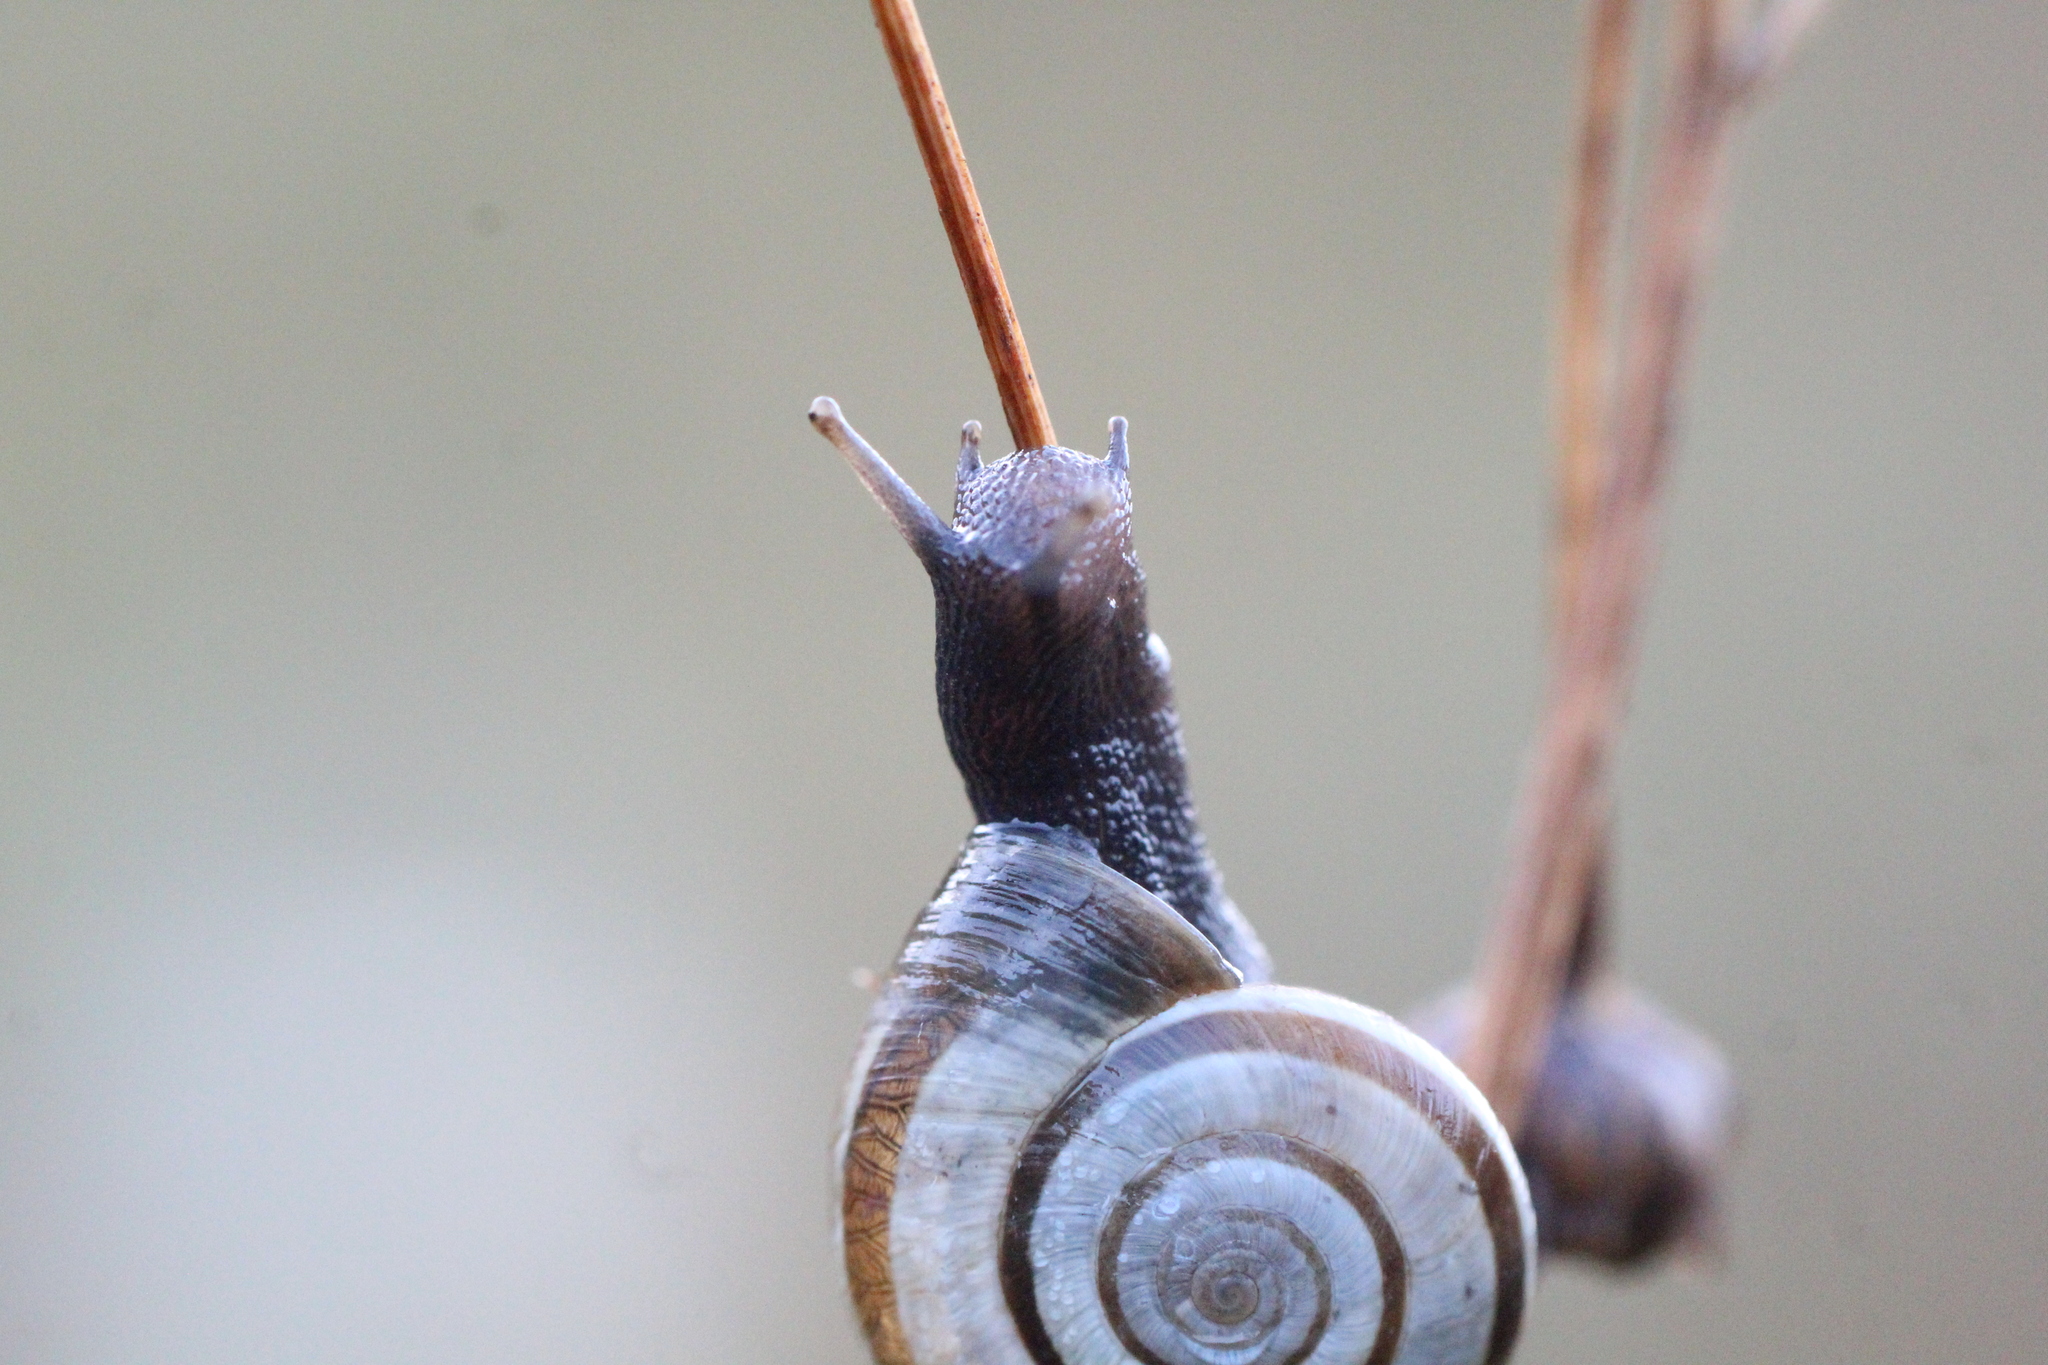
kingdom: Animalia
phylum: Mollusca
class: Gastropoda
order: Stylommatophora
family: Geomitridae
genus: Helicella
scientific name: Helicella itala
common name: Heath snail
